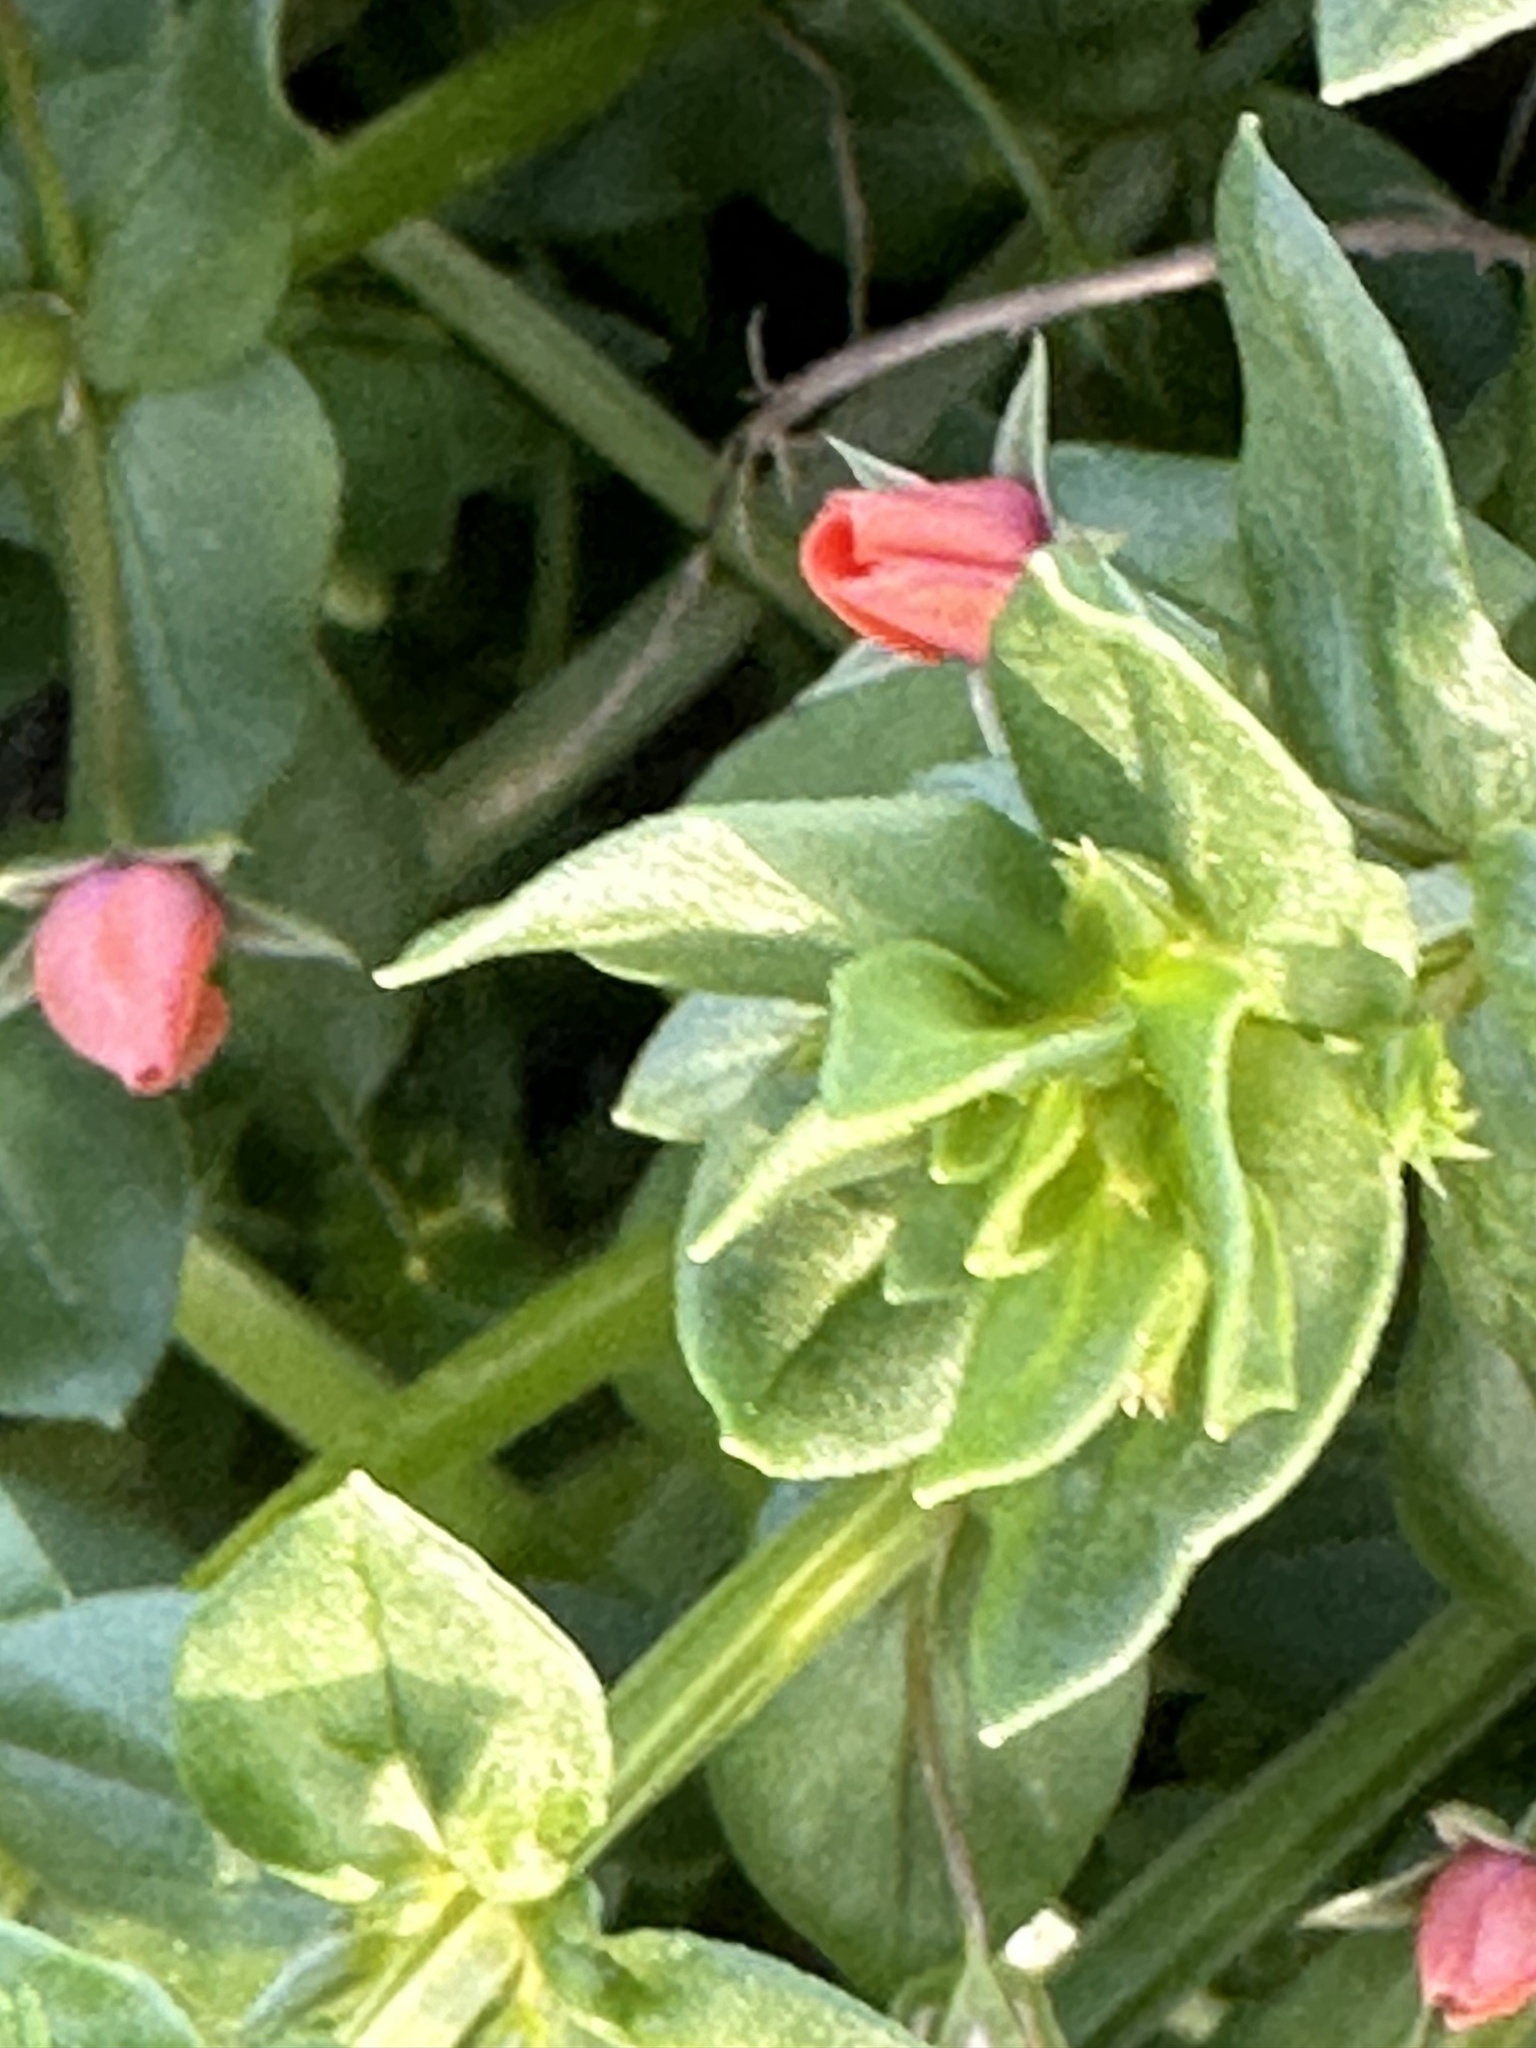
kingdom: Plantae
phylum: Tracheophyta
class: Magnoliopsida
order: Ericales
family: Primulaceae
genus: Lysimachia
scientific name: Lysimachia arvensis
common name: Scarlet pimpernel
